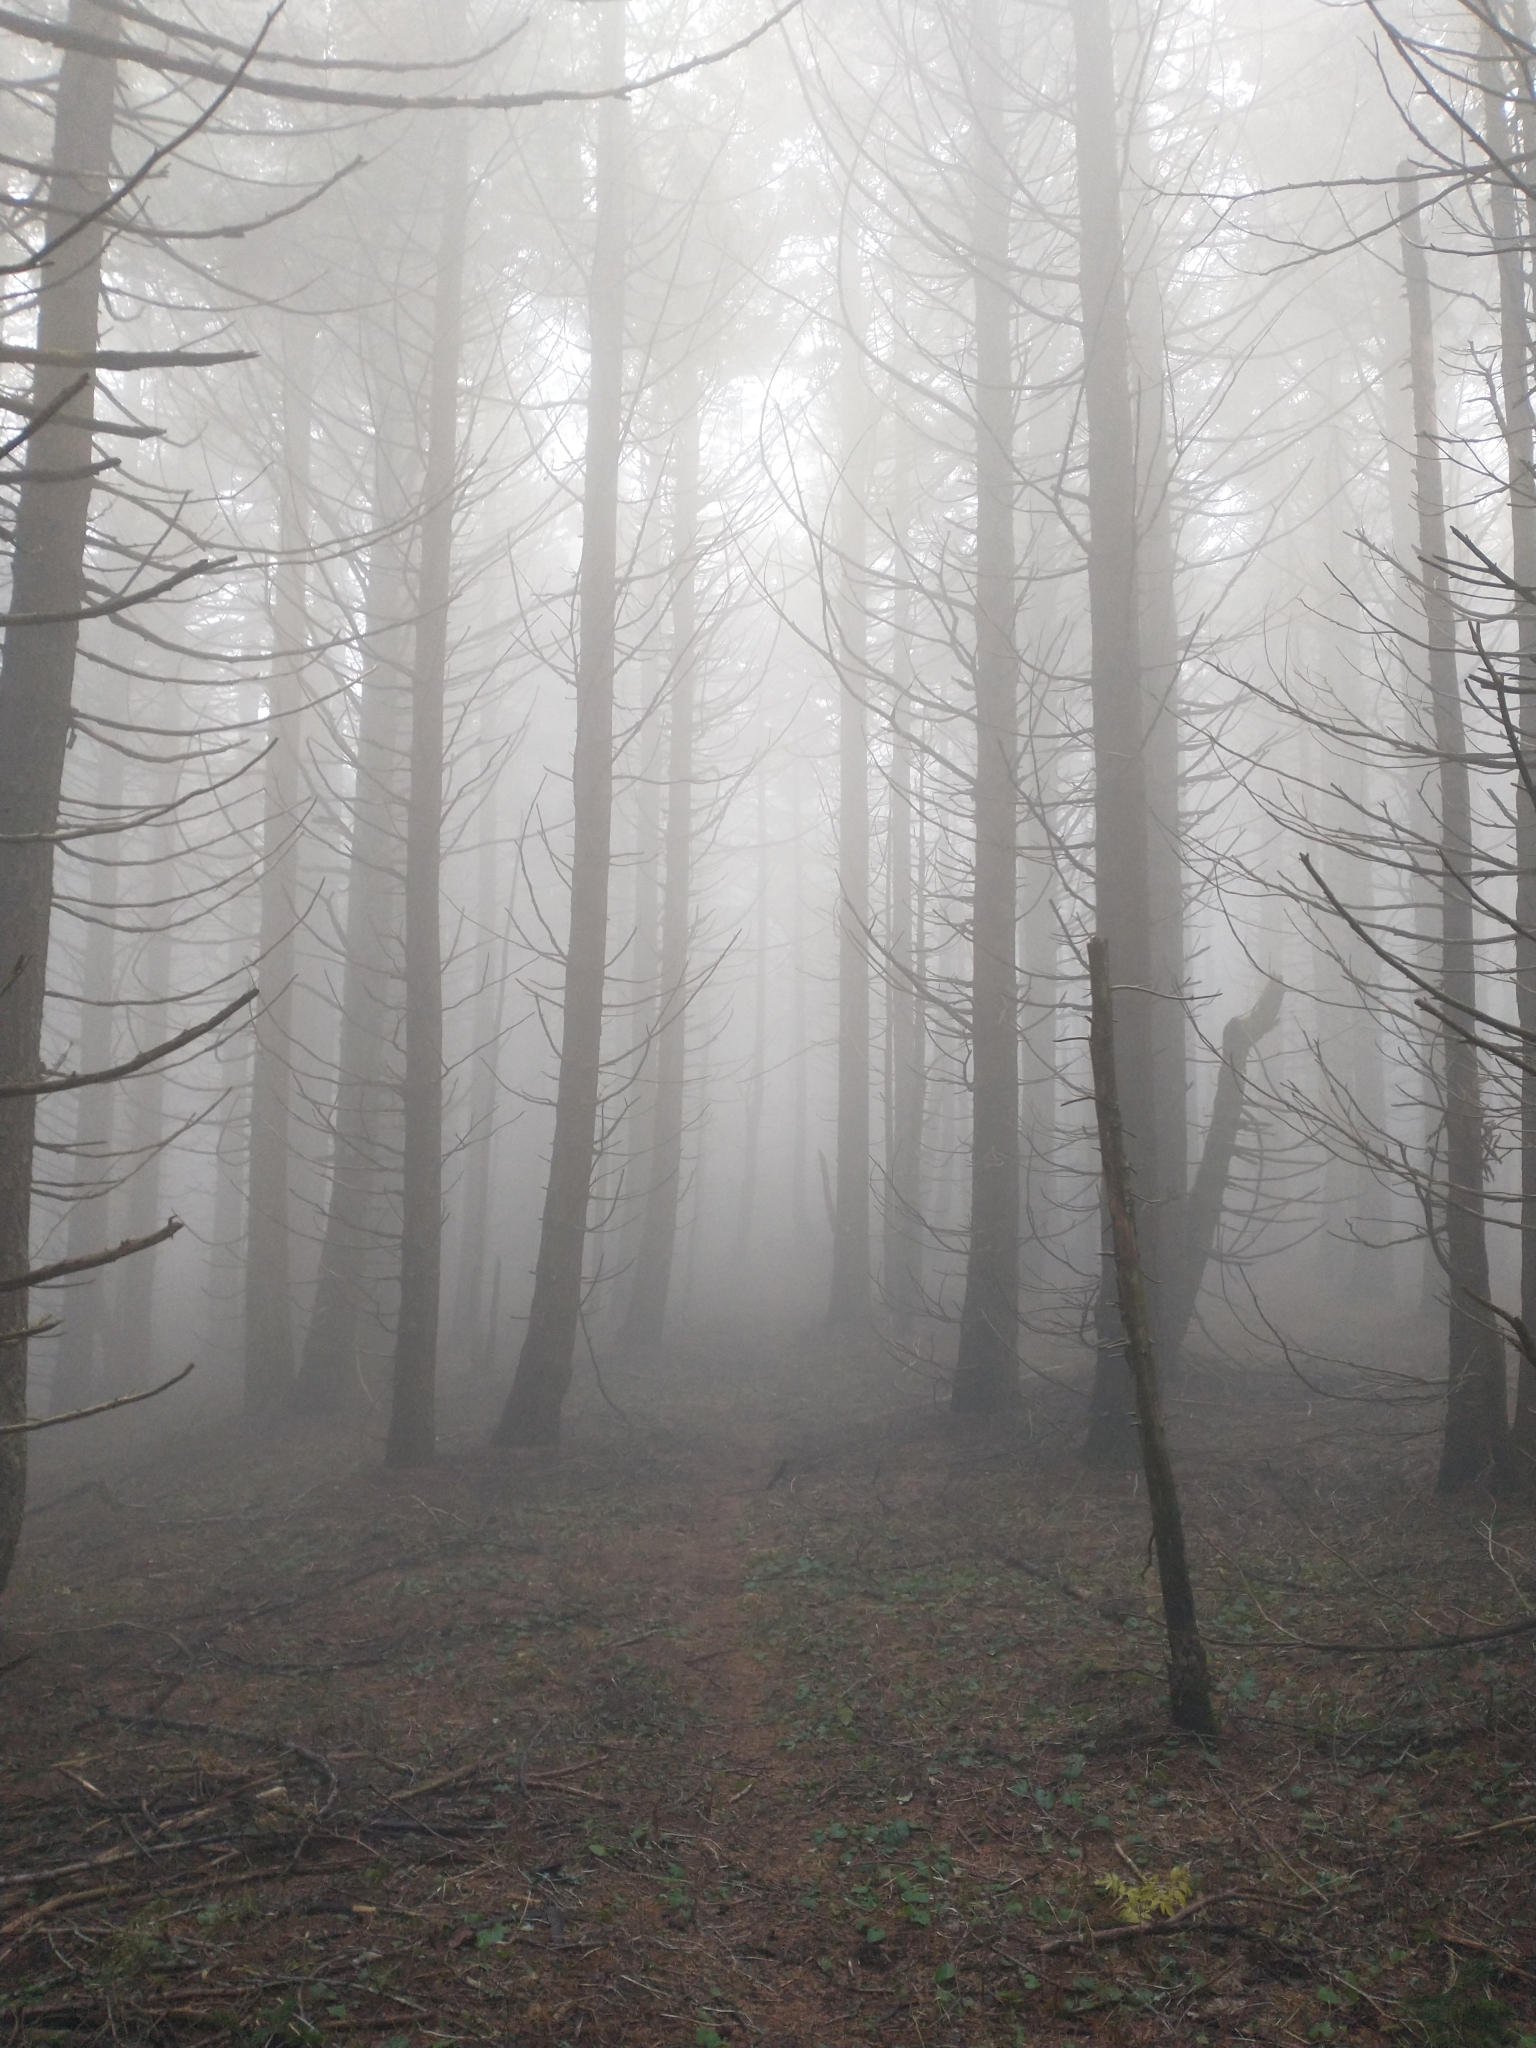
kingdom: Plantae
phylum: Tracheophyta
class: Pinopsida
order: Pinales
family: Pinaceae
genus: Pseudotsuga
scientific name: Pseudotsuga menziesii
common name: Douglas fir
